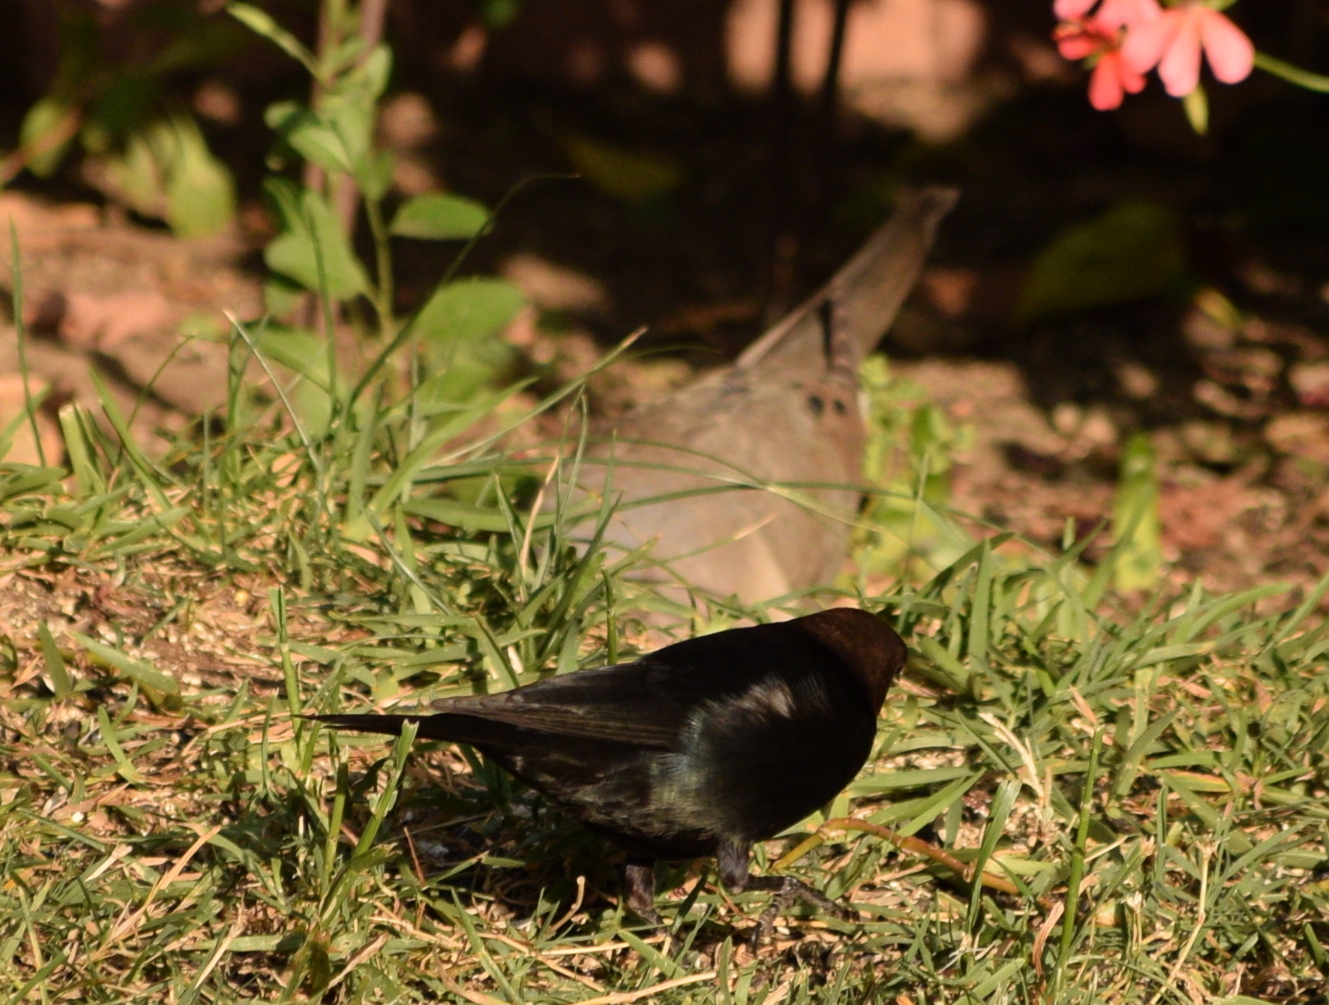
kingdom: Animalia
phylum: Chordata
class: Aves
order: Passeriformes
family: Icteridae
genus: Molothrus
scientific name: Molothrus ater
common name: Brown-headed cowbird
